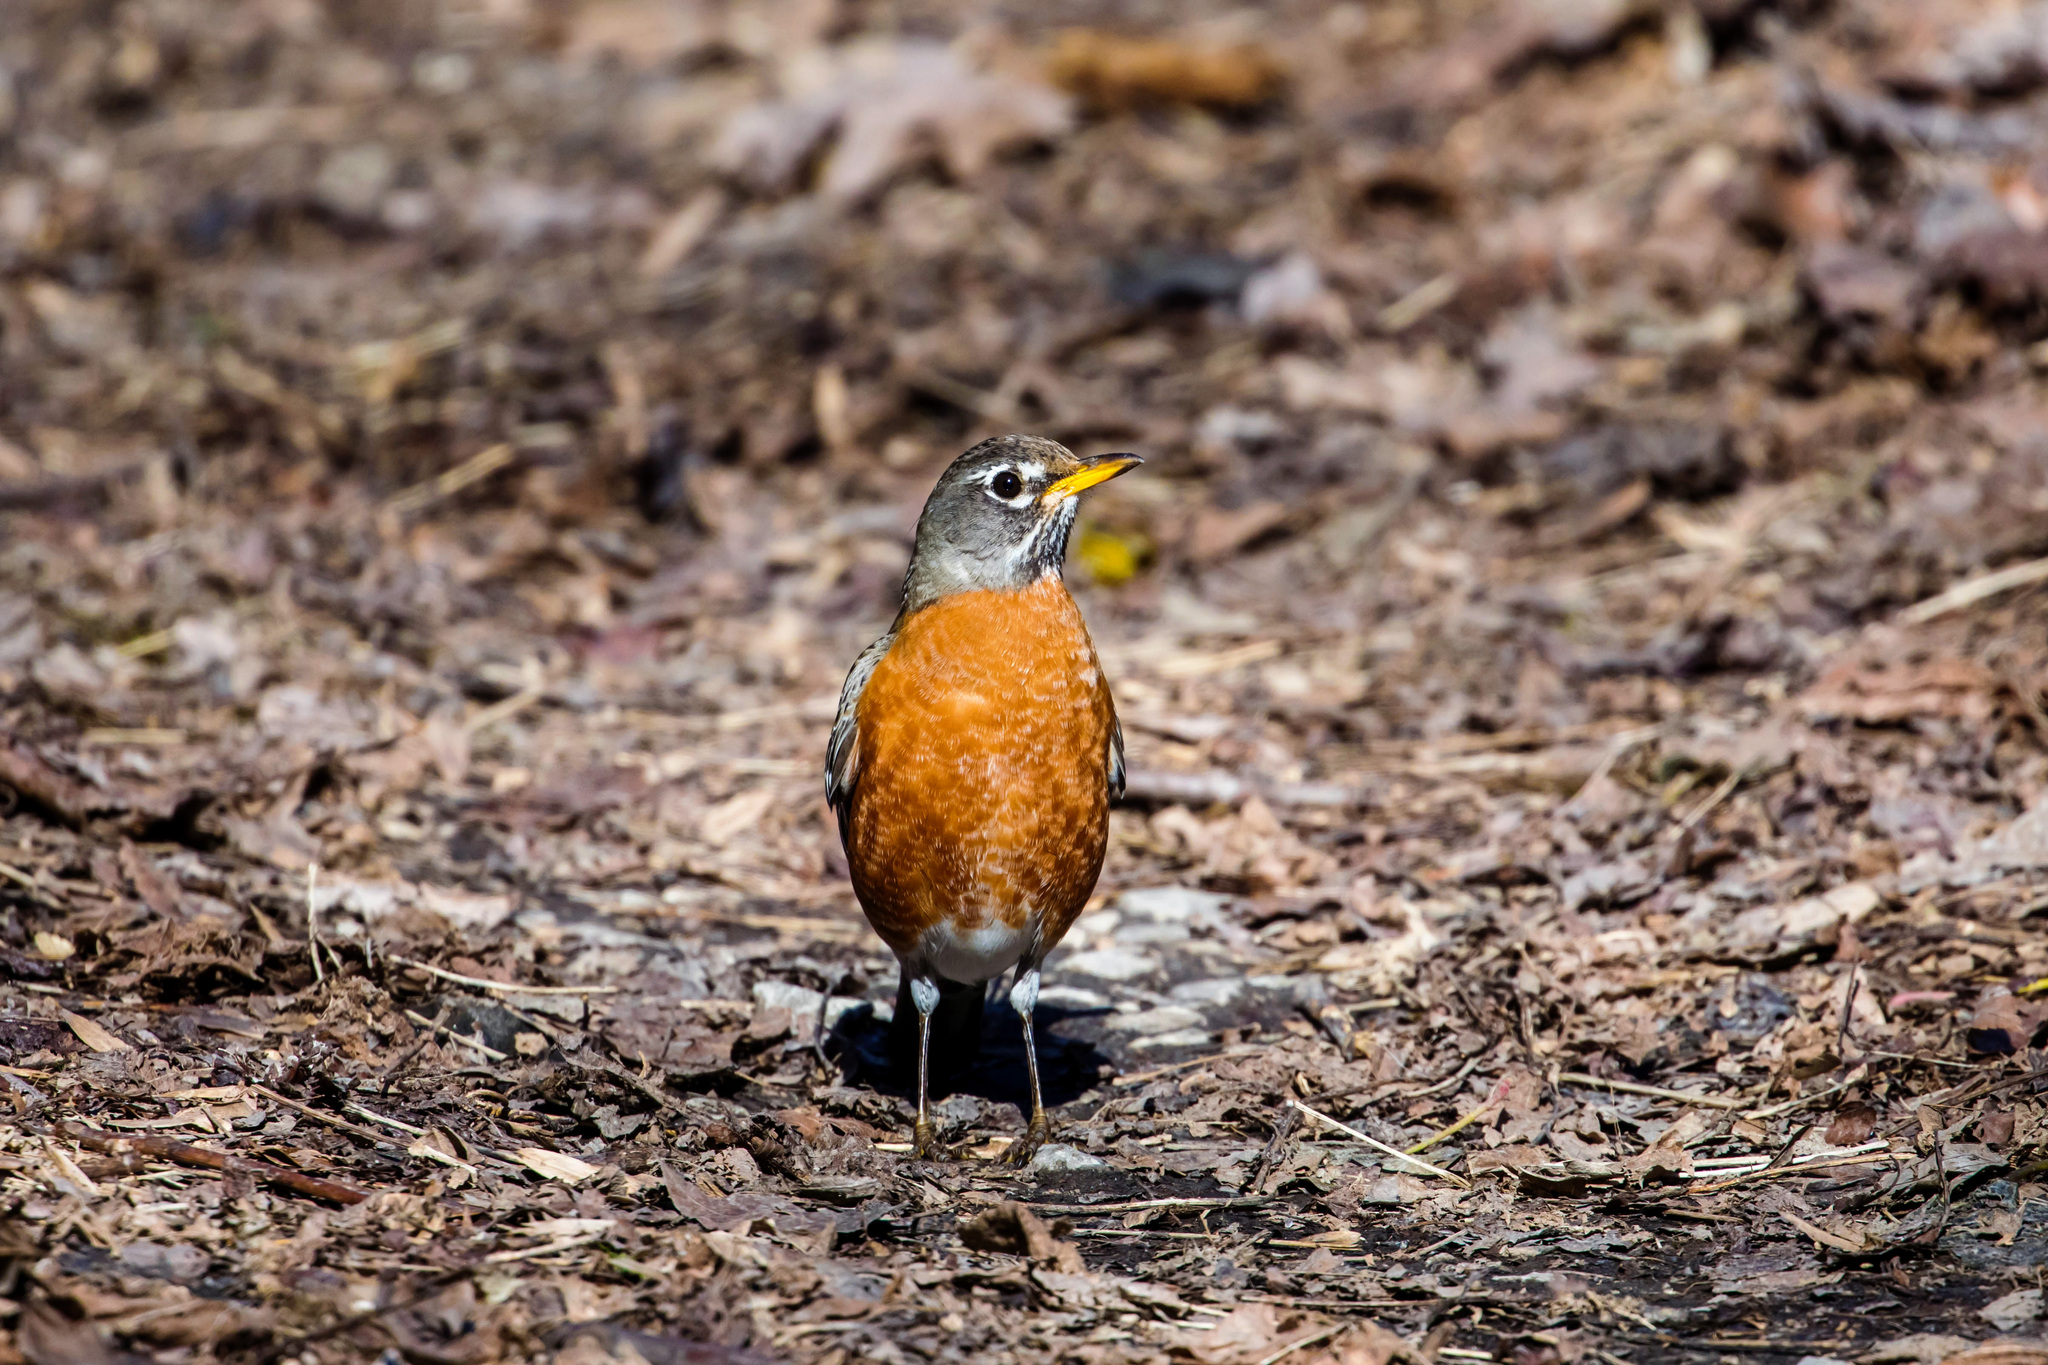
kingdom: Animalia
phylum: Chordata
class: Aves
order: Passeriformes
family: Turdidae
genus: Turdus
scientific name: Turdus migratorius
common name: American robin
